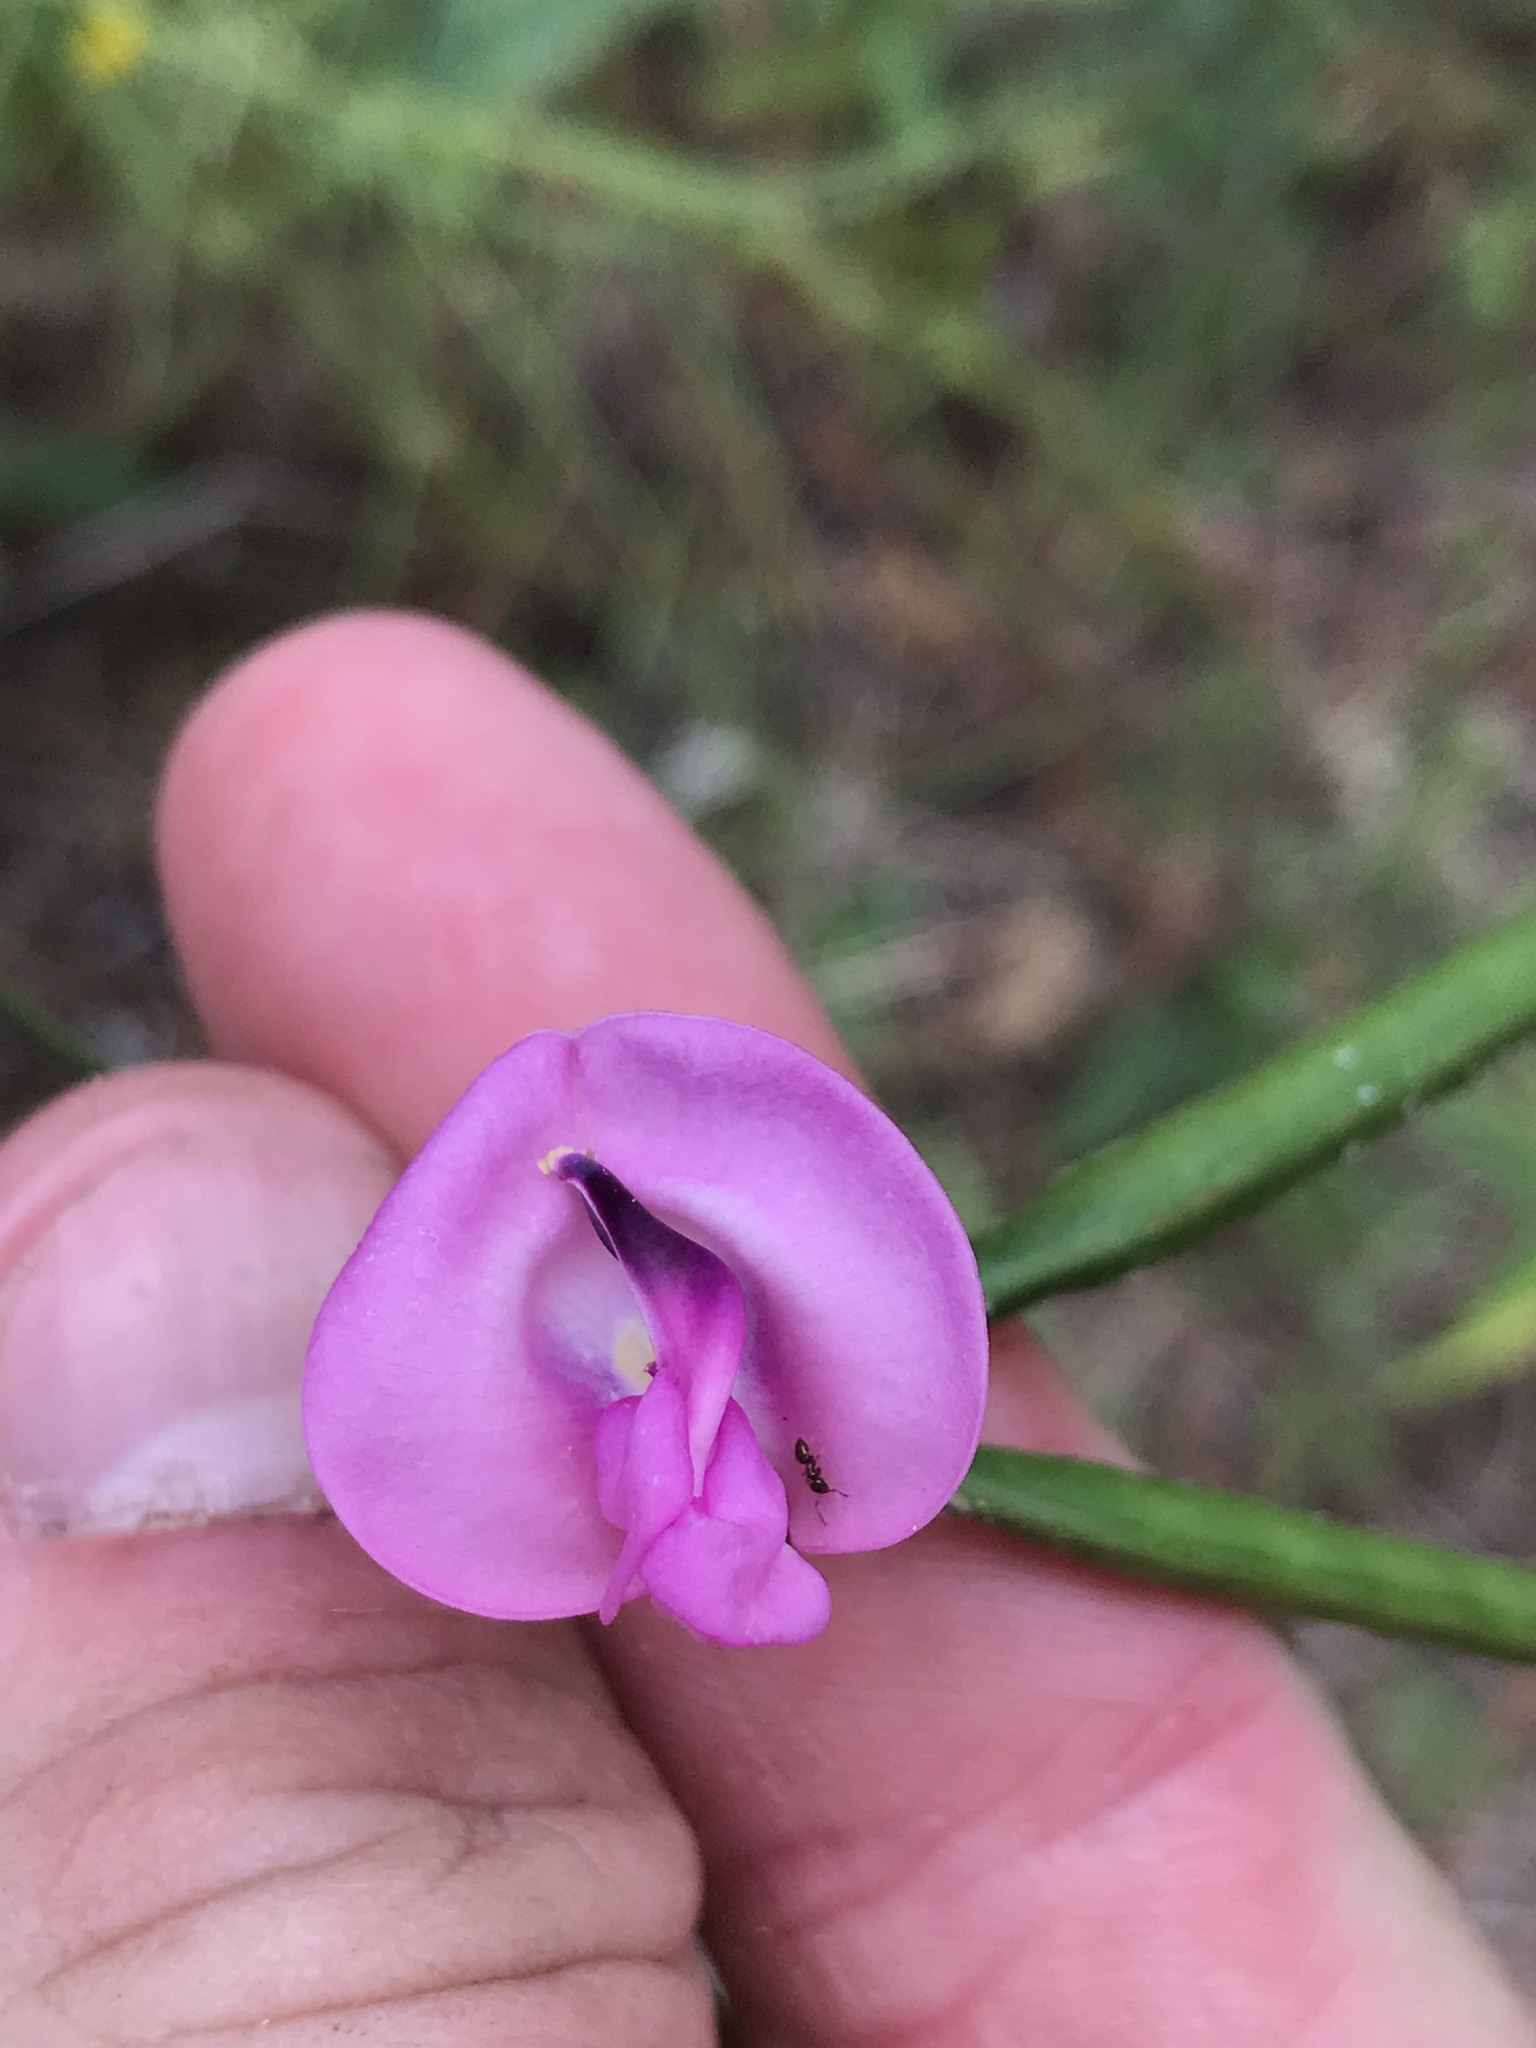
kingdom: Plantae
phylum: Tracheophyta
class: Magnoliopsida
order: Fabales
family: Fabaceae
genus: Strophostyles
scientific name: Strophostyles umbellata
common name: Perennial wild bean
